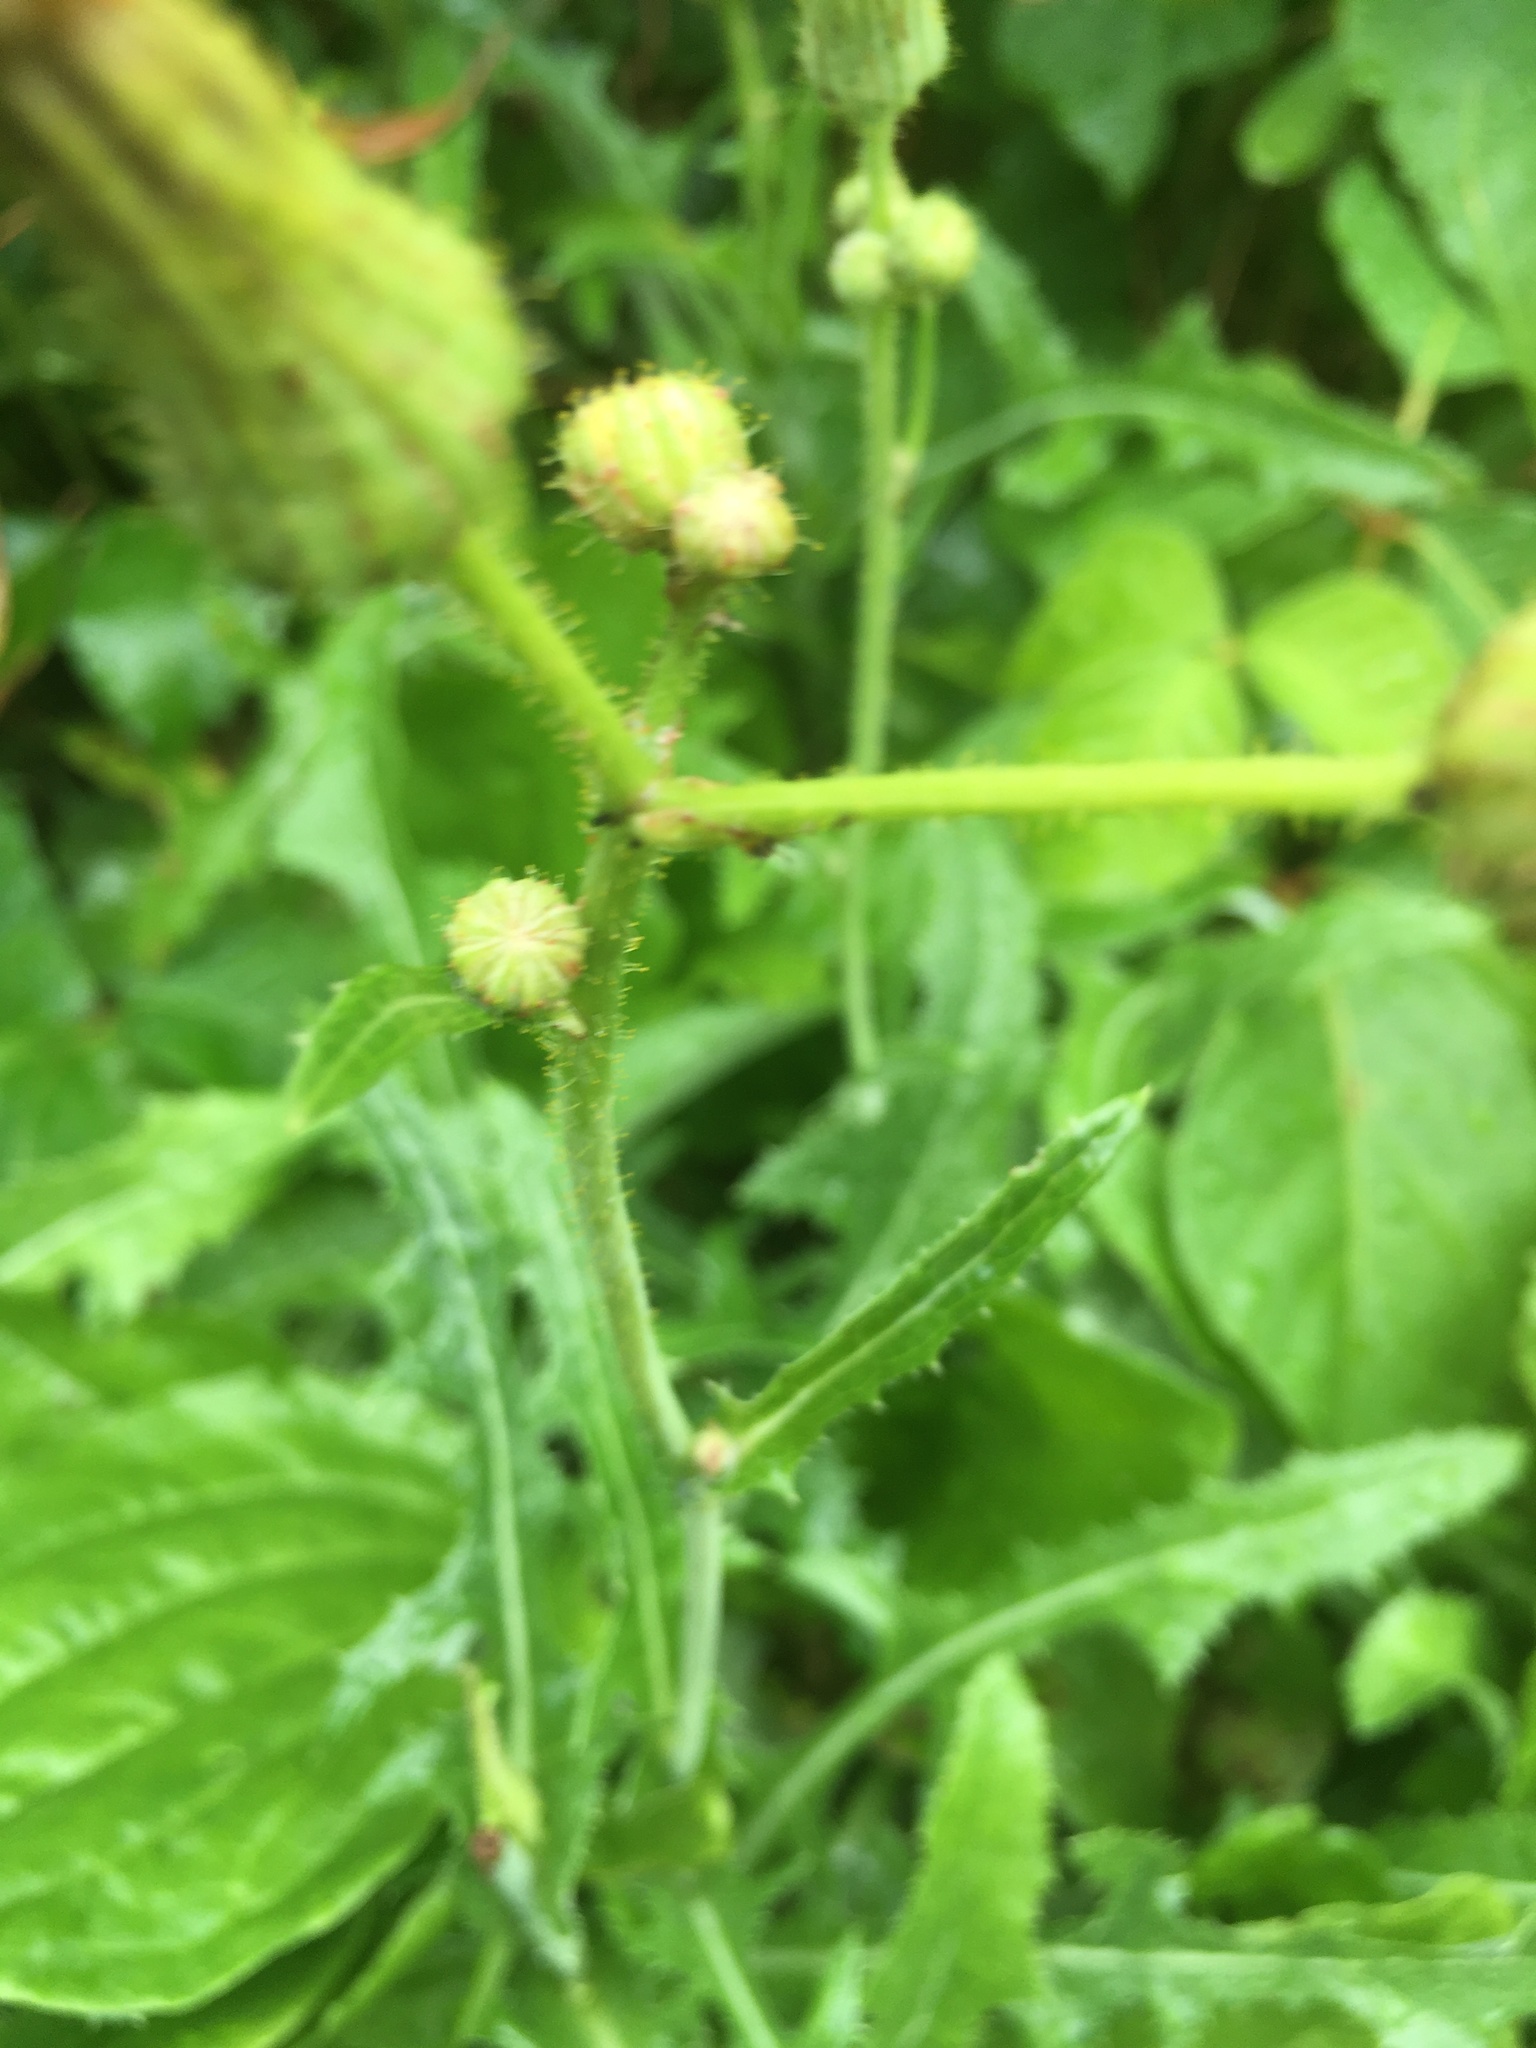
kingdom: Plantae
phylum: Tracheophyta
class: Magnoliopsida
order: Asterales
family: Asteraceae
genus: Sonchus
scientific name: Sonchus arvensis
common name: Perennial sow-thistle
